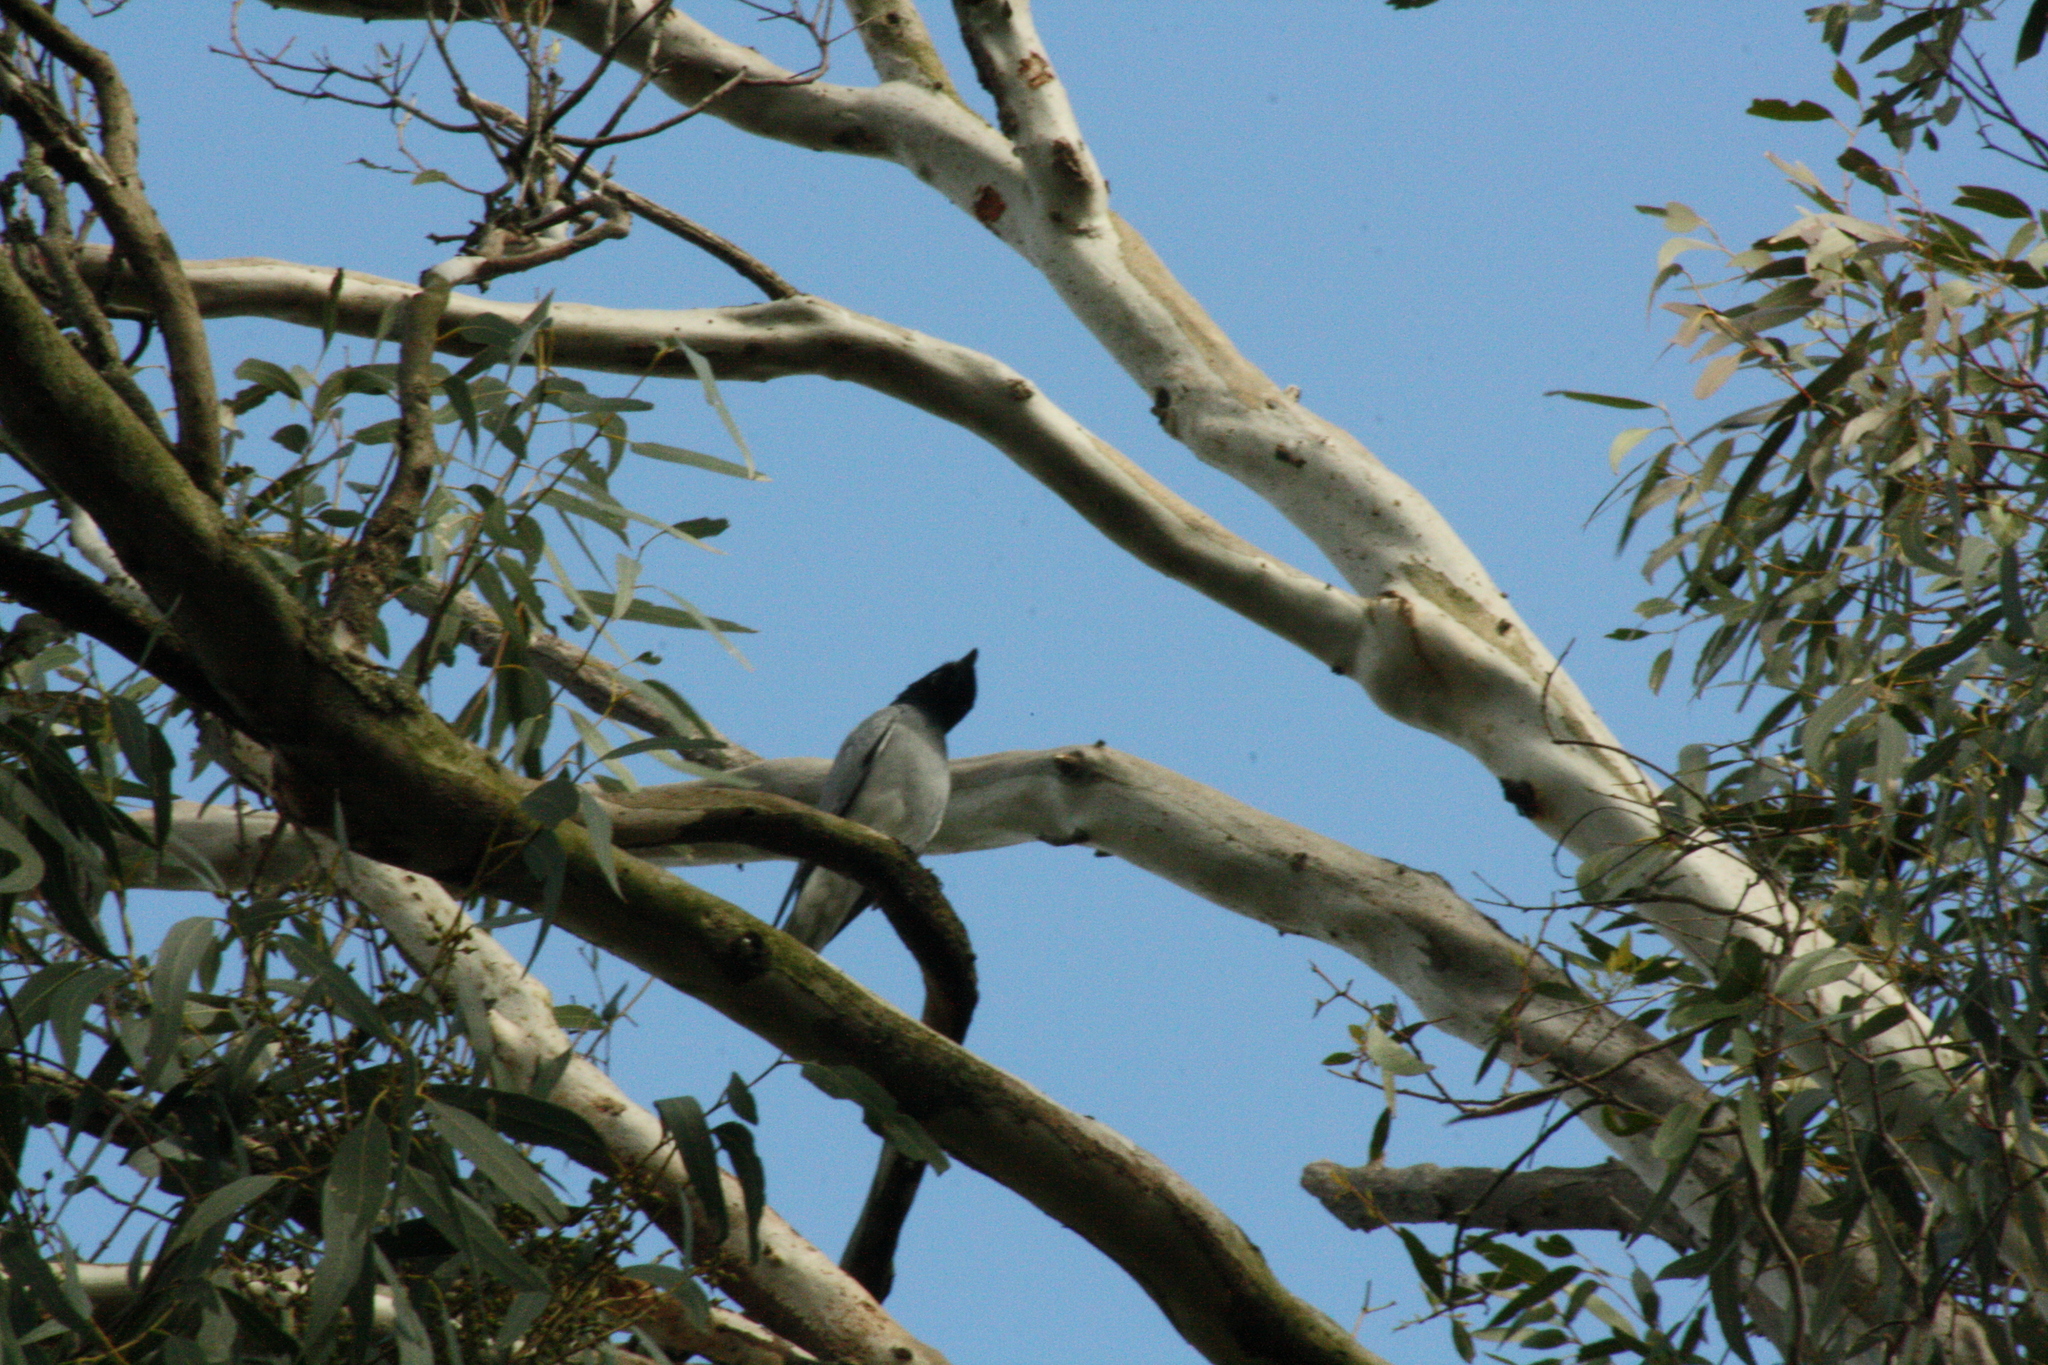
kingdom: Animalia
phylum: Chordata
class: Aves
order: Passeriformes
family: Campephagidae
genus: Coracina
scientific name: Coracina novaehollandiae
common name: Black-faced cuckooshrike
